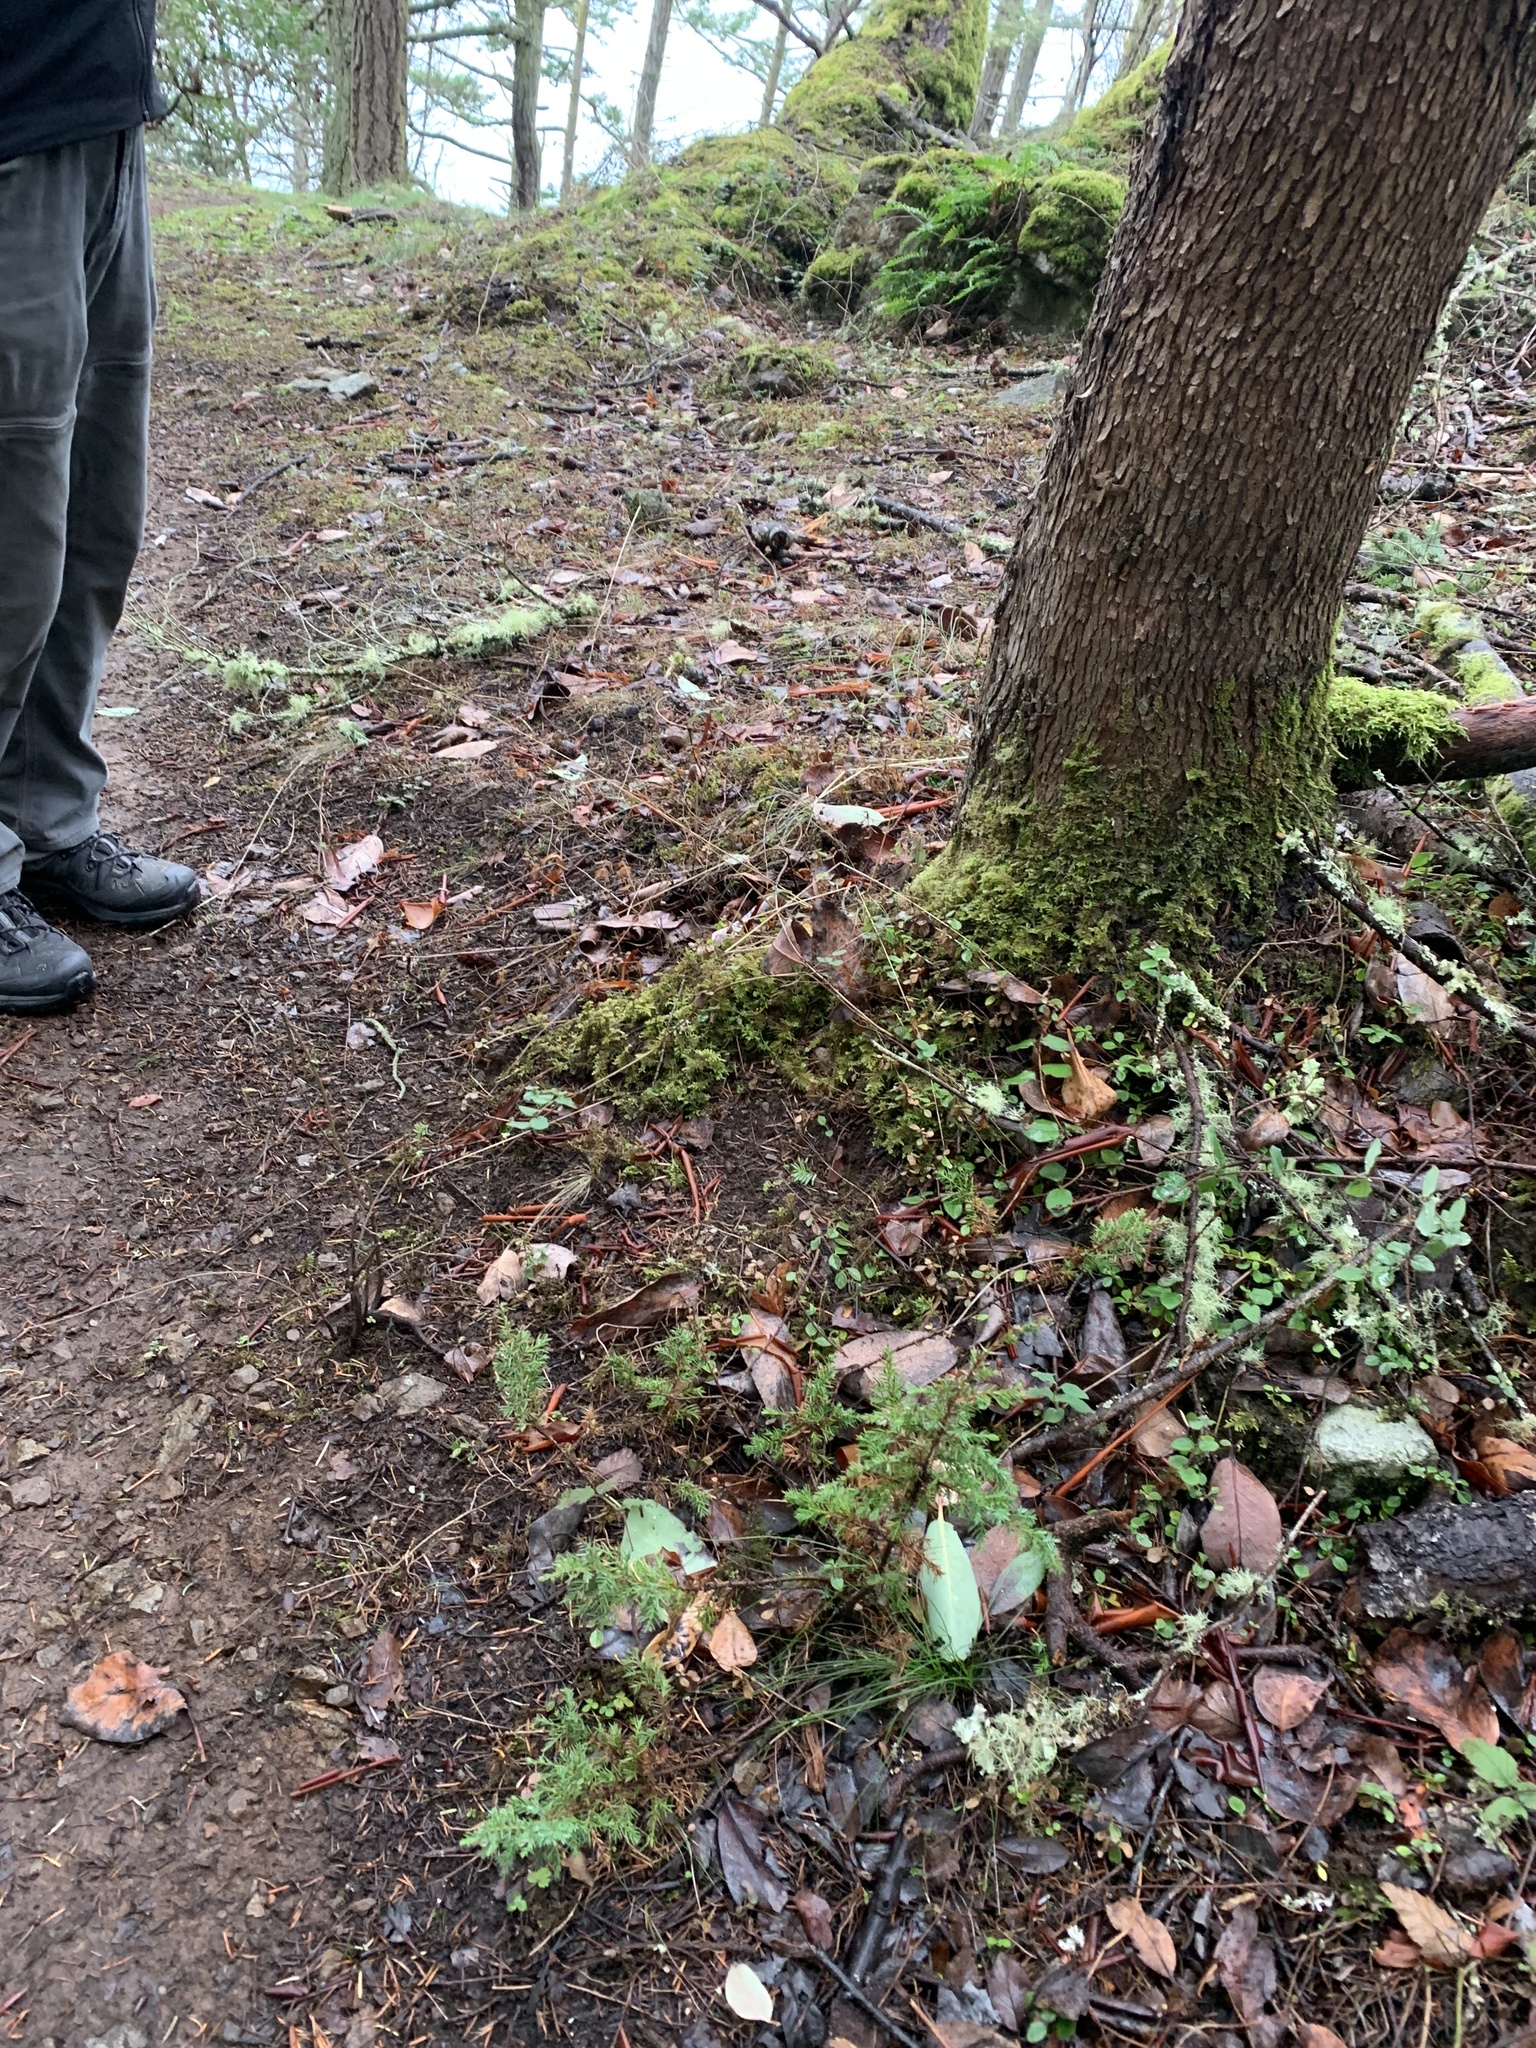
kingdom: Plantae
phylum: Tracheophyta
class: Pinopsida
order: Pinales
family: Cupressaceae
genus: Juniperus
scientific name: Juniperus scopulorum
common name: Rocky mountain juniper
